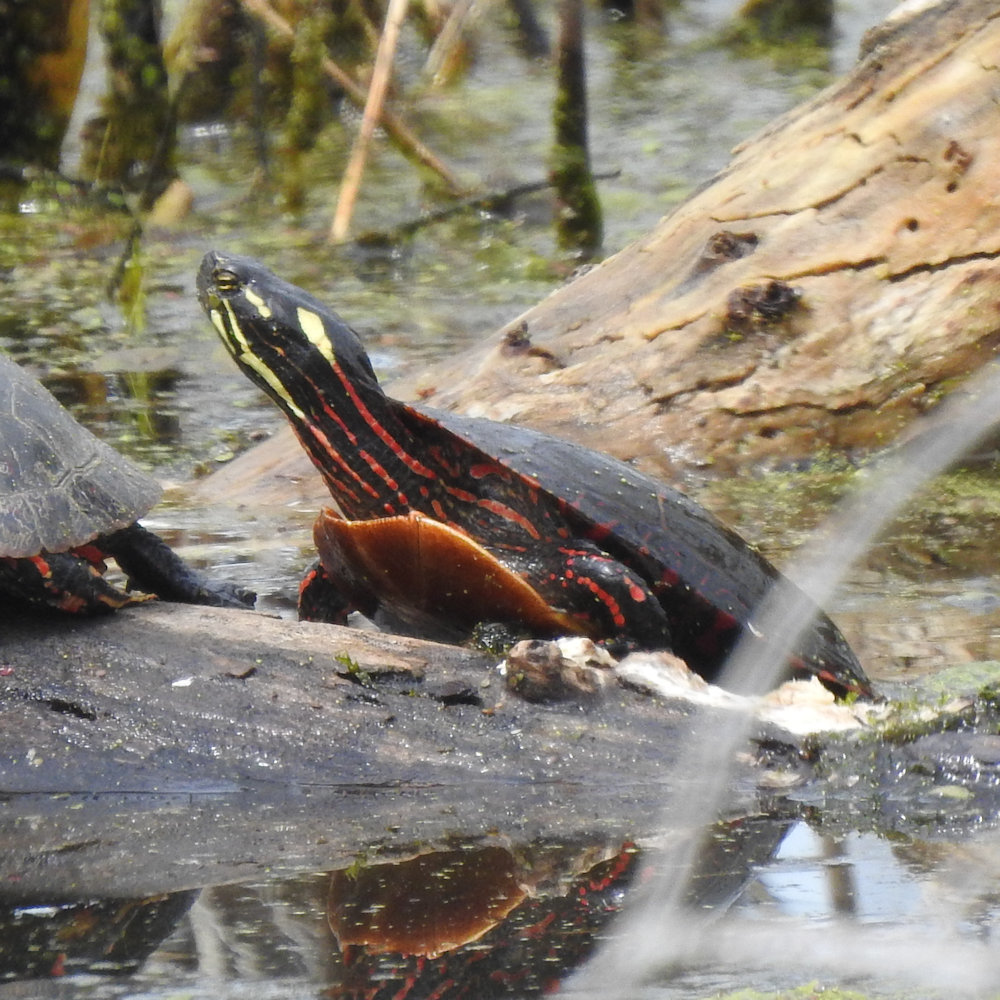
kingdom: Animalia
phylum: Chordata
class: Testudines
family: Emydidae
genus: Chrysemys
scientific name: Chrysemys picta
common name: Painted turtle
